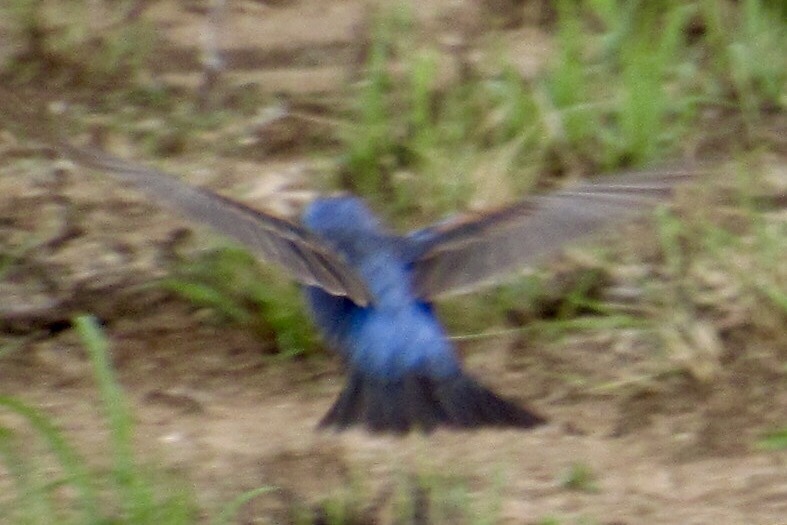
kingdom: Animalia
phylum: Chordata
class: Aves
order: Passeriformes
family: Cardinalidae
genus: Passerina
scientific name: Passerina caerulea
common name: Blue grosbeak
